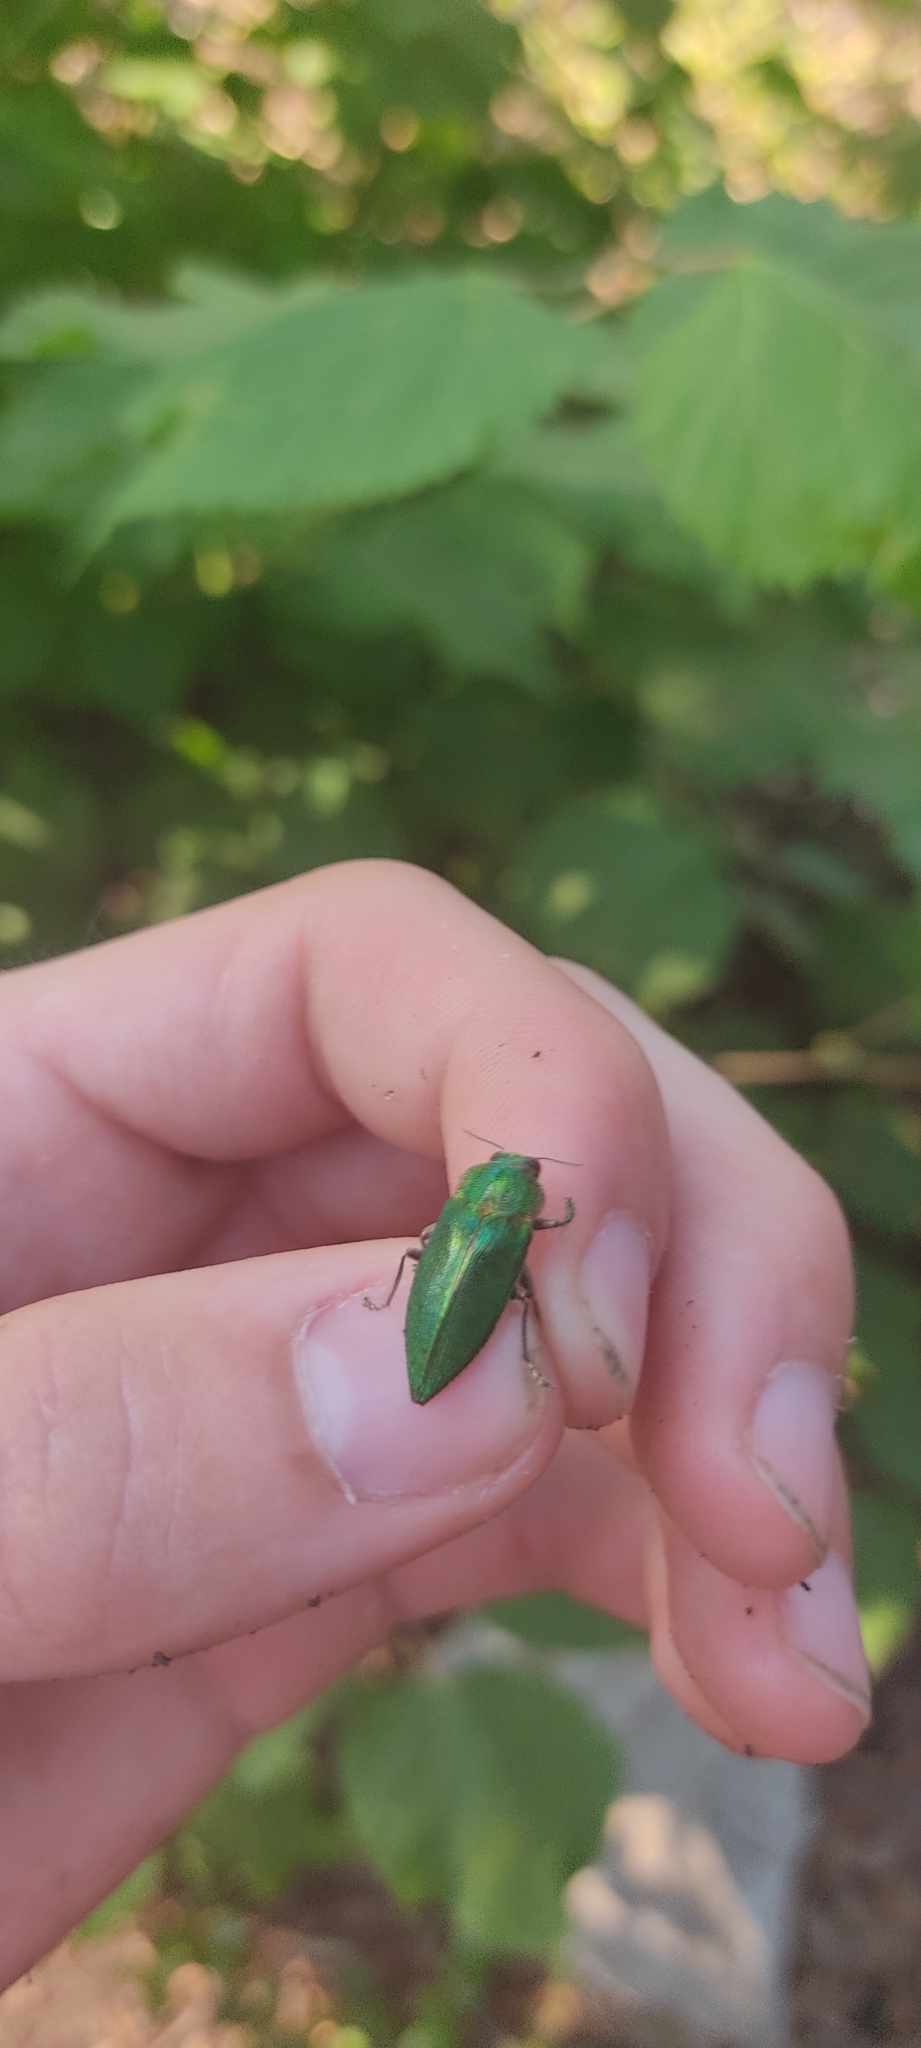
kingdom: Animalia
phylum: Arthropoda
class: Insecta
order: Coleoptera
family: Buprestidae
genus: Latipalpis
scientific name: Latipalpis plana
